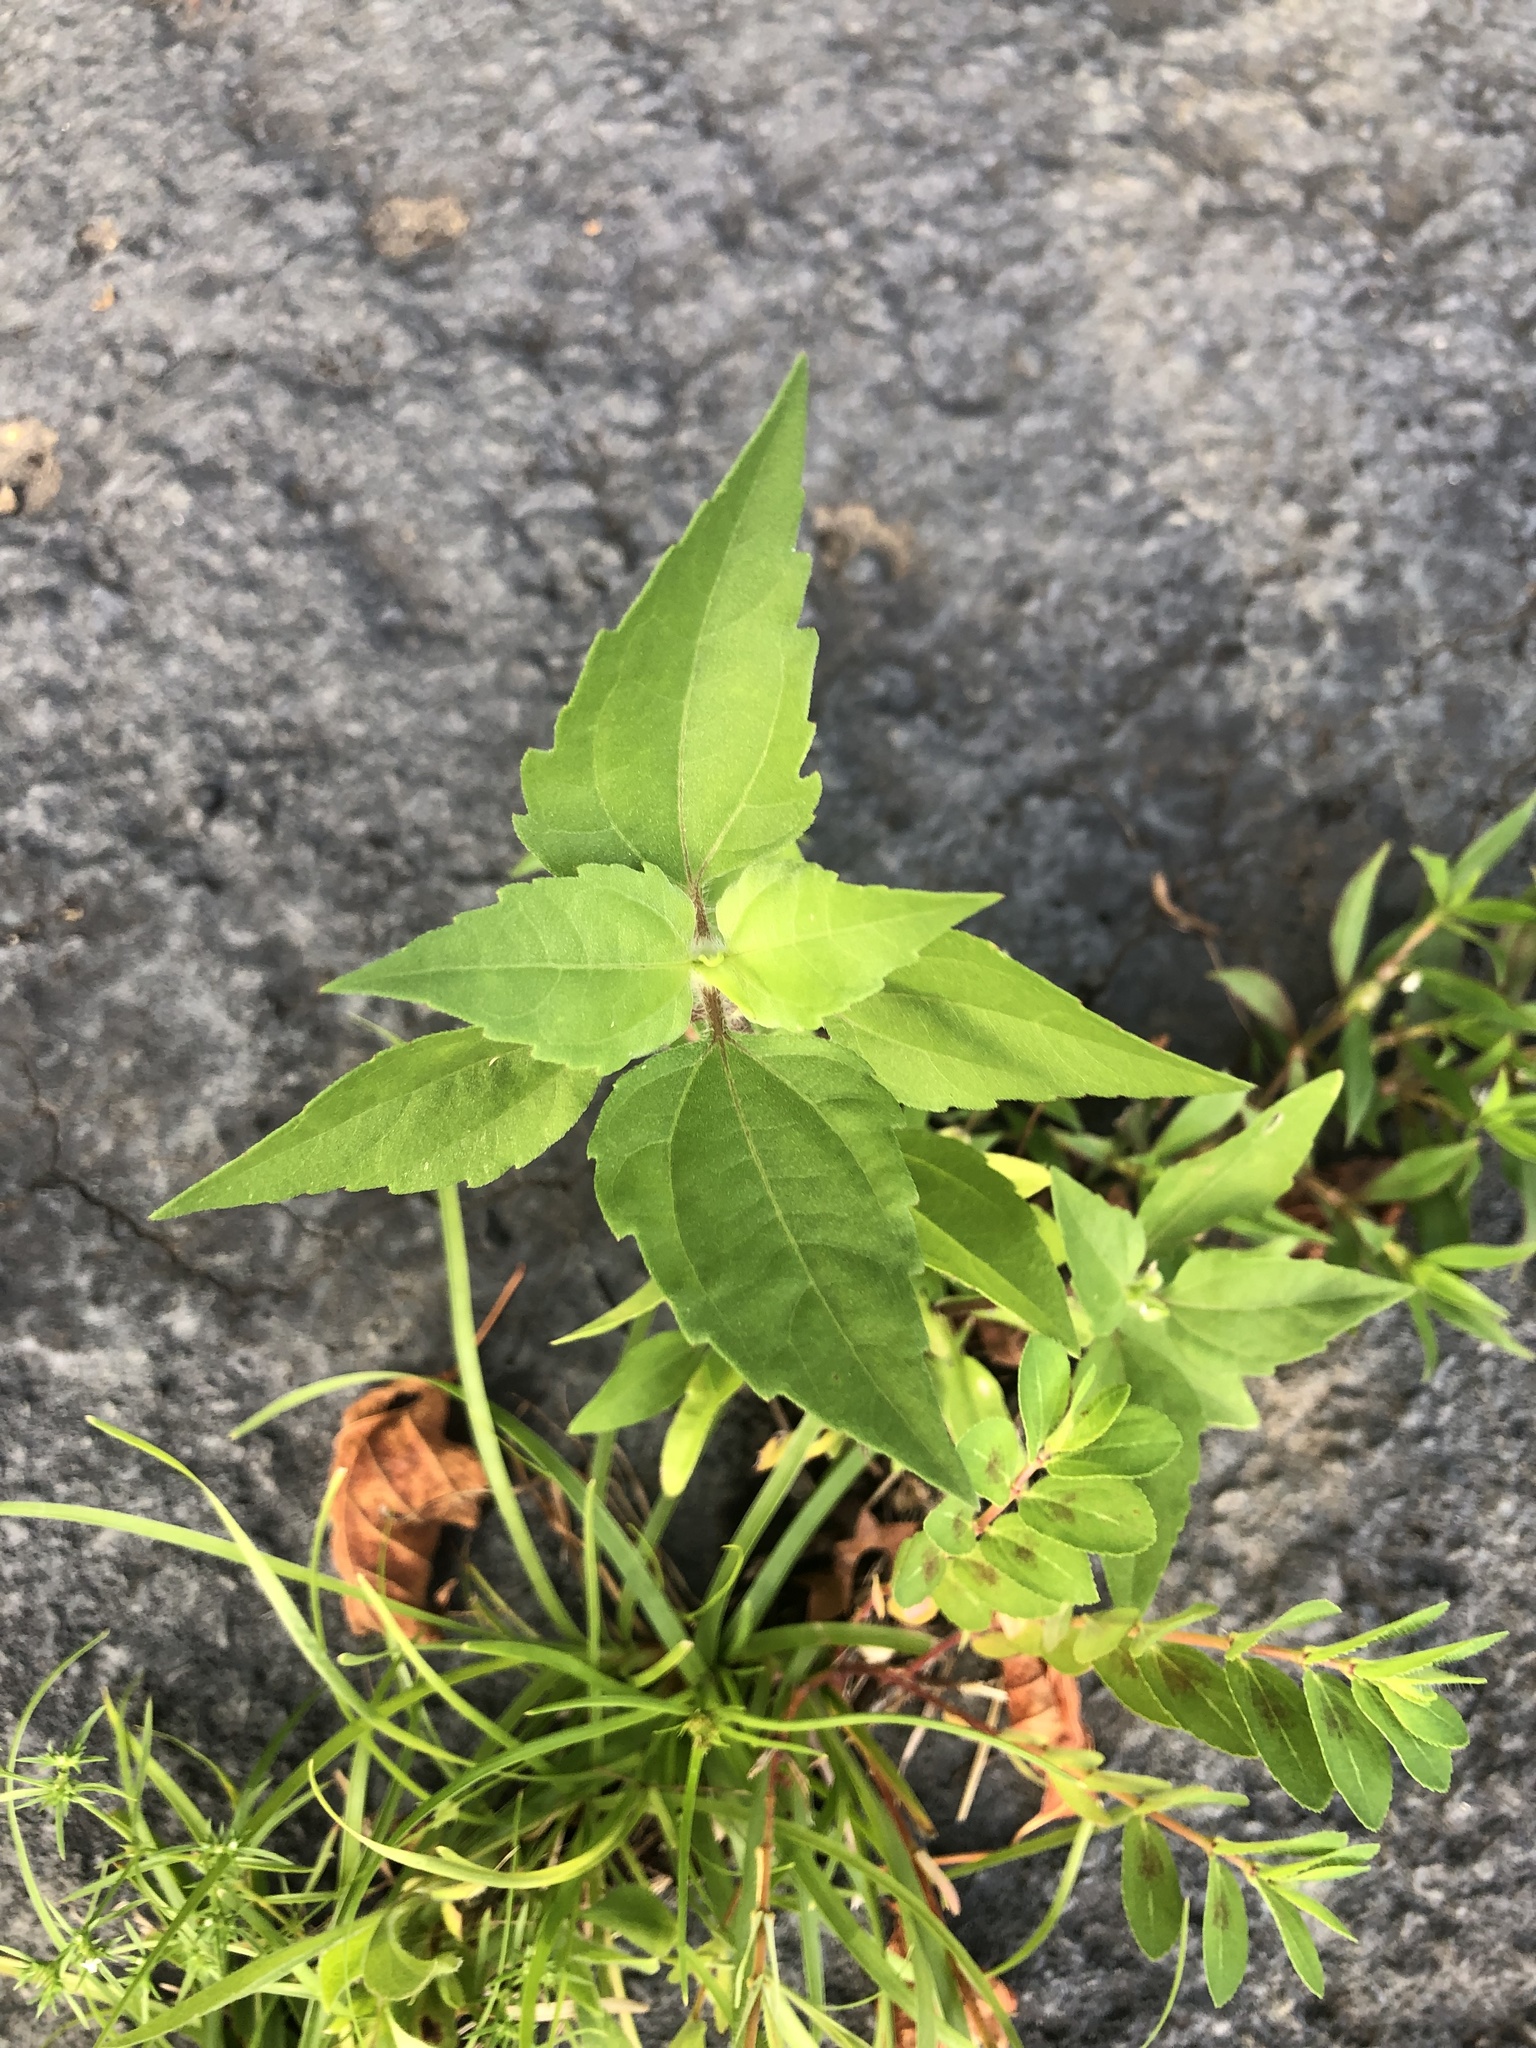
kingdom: Plantae
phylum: Tracheophyta
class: Magnoliopsida
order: Asterales
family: Asteraceae
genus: Iva
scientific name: Iva annua
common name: Marsh-elder
